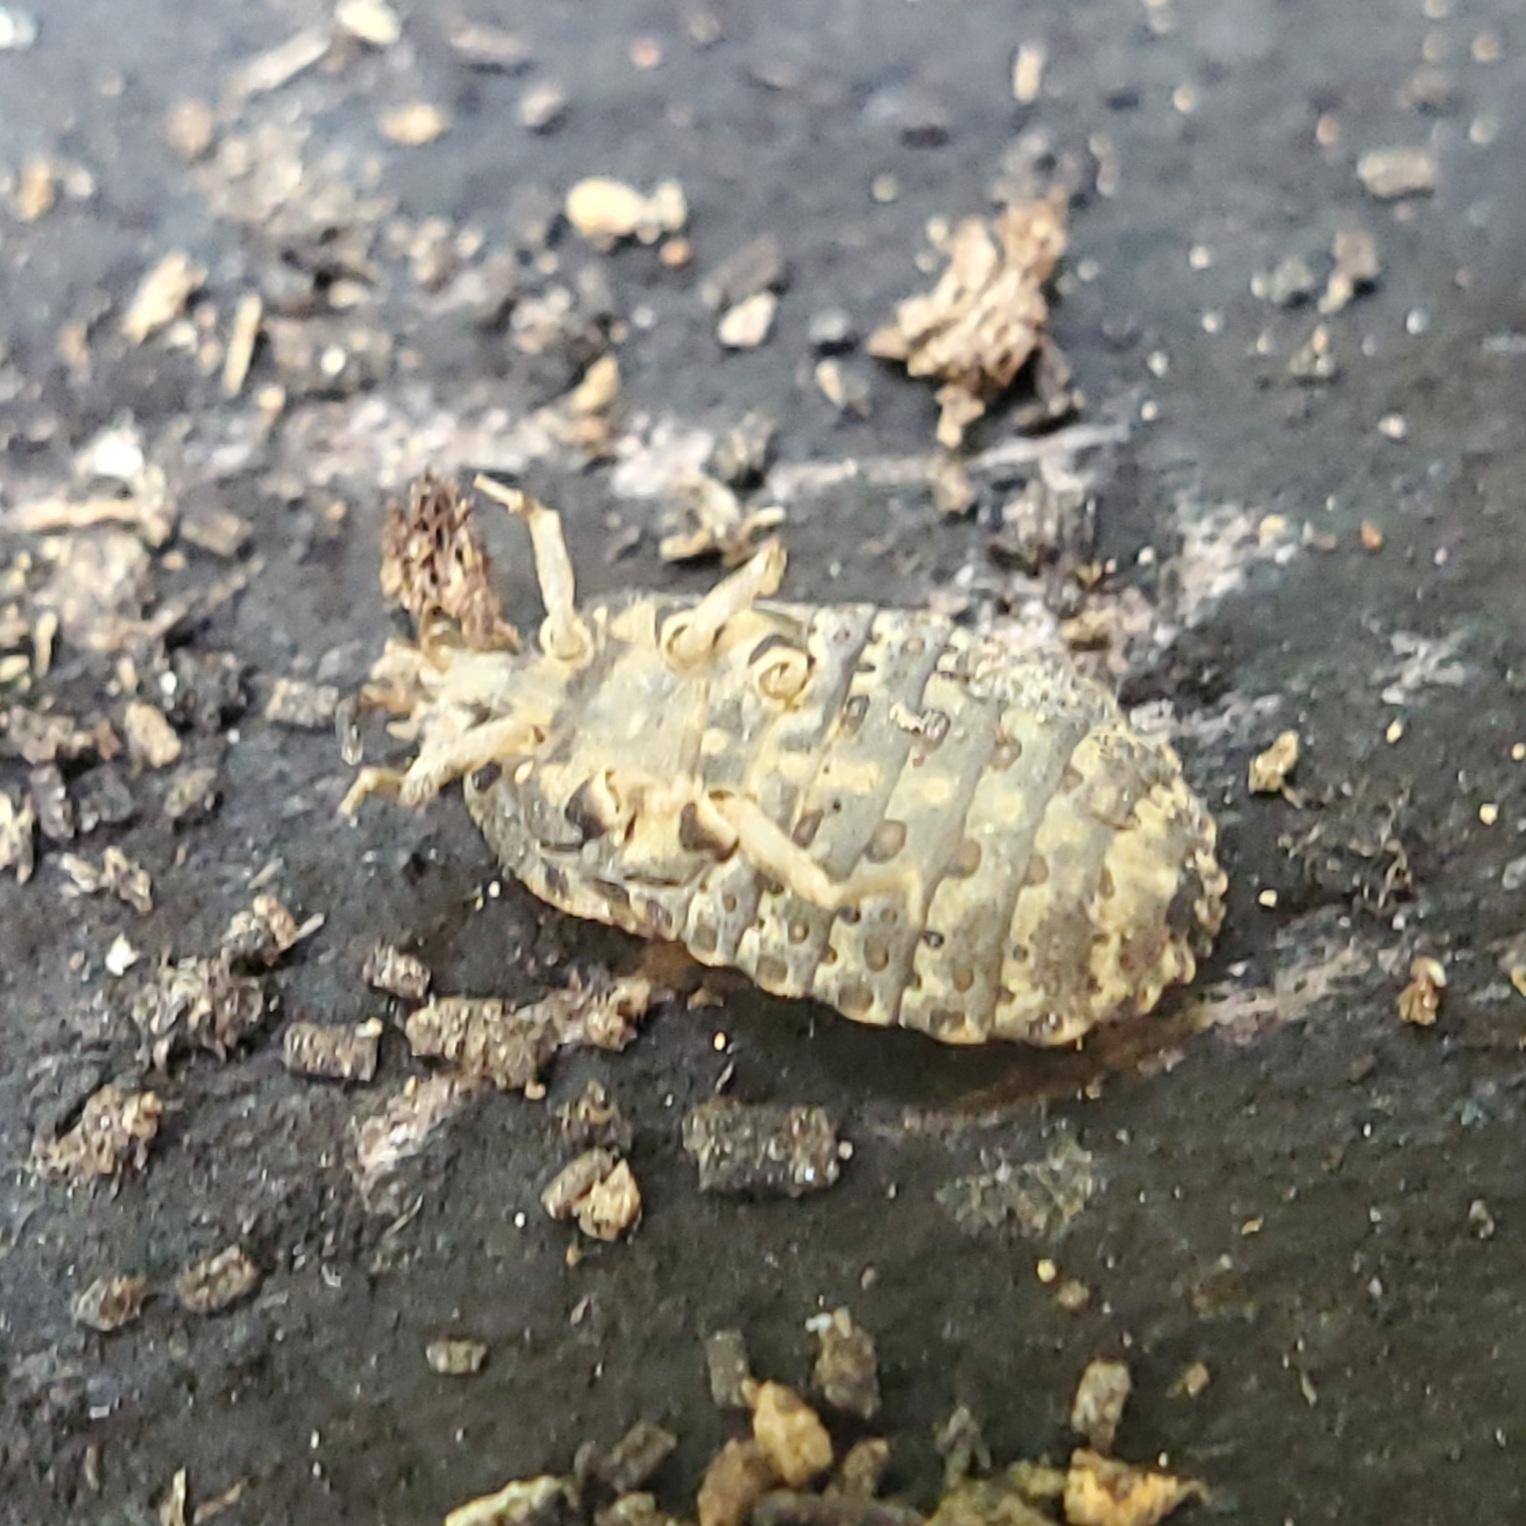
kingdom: Animalia
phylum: Arthropoda
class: Insecta
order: Hemiptera
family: Aradidae
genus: Mezira
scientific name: Mezira
